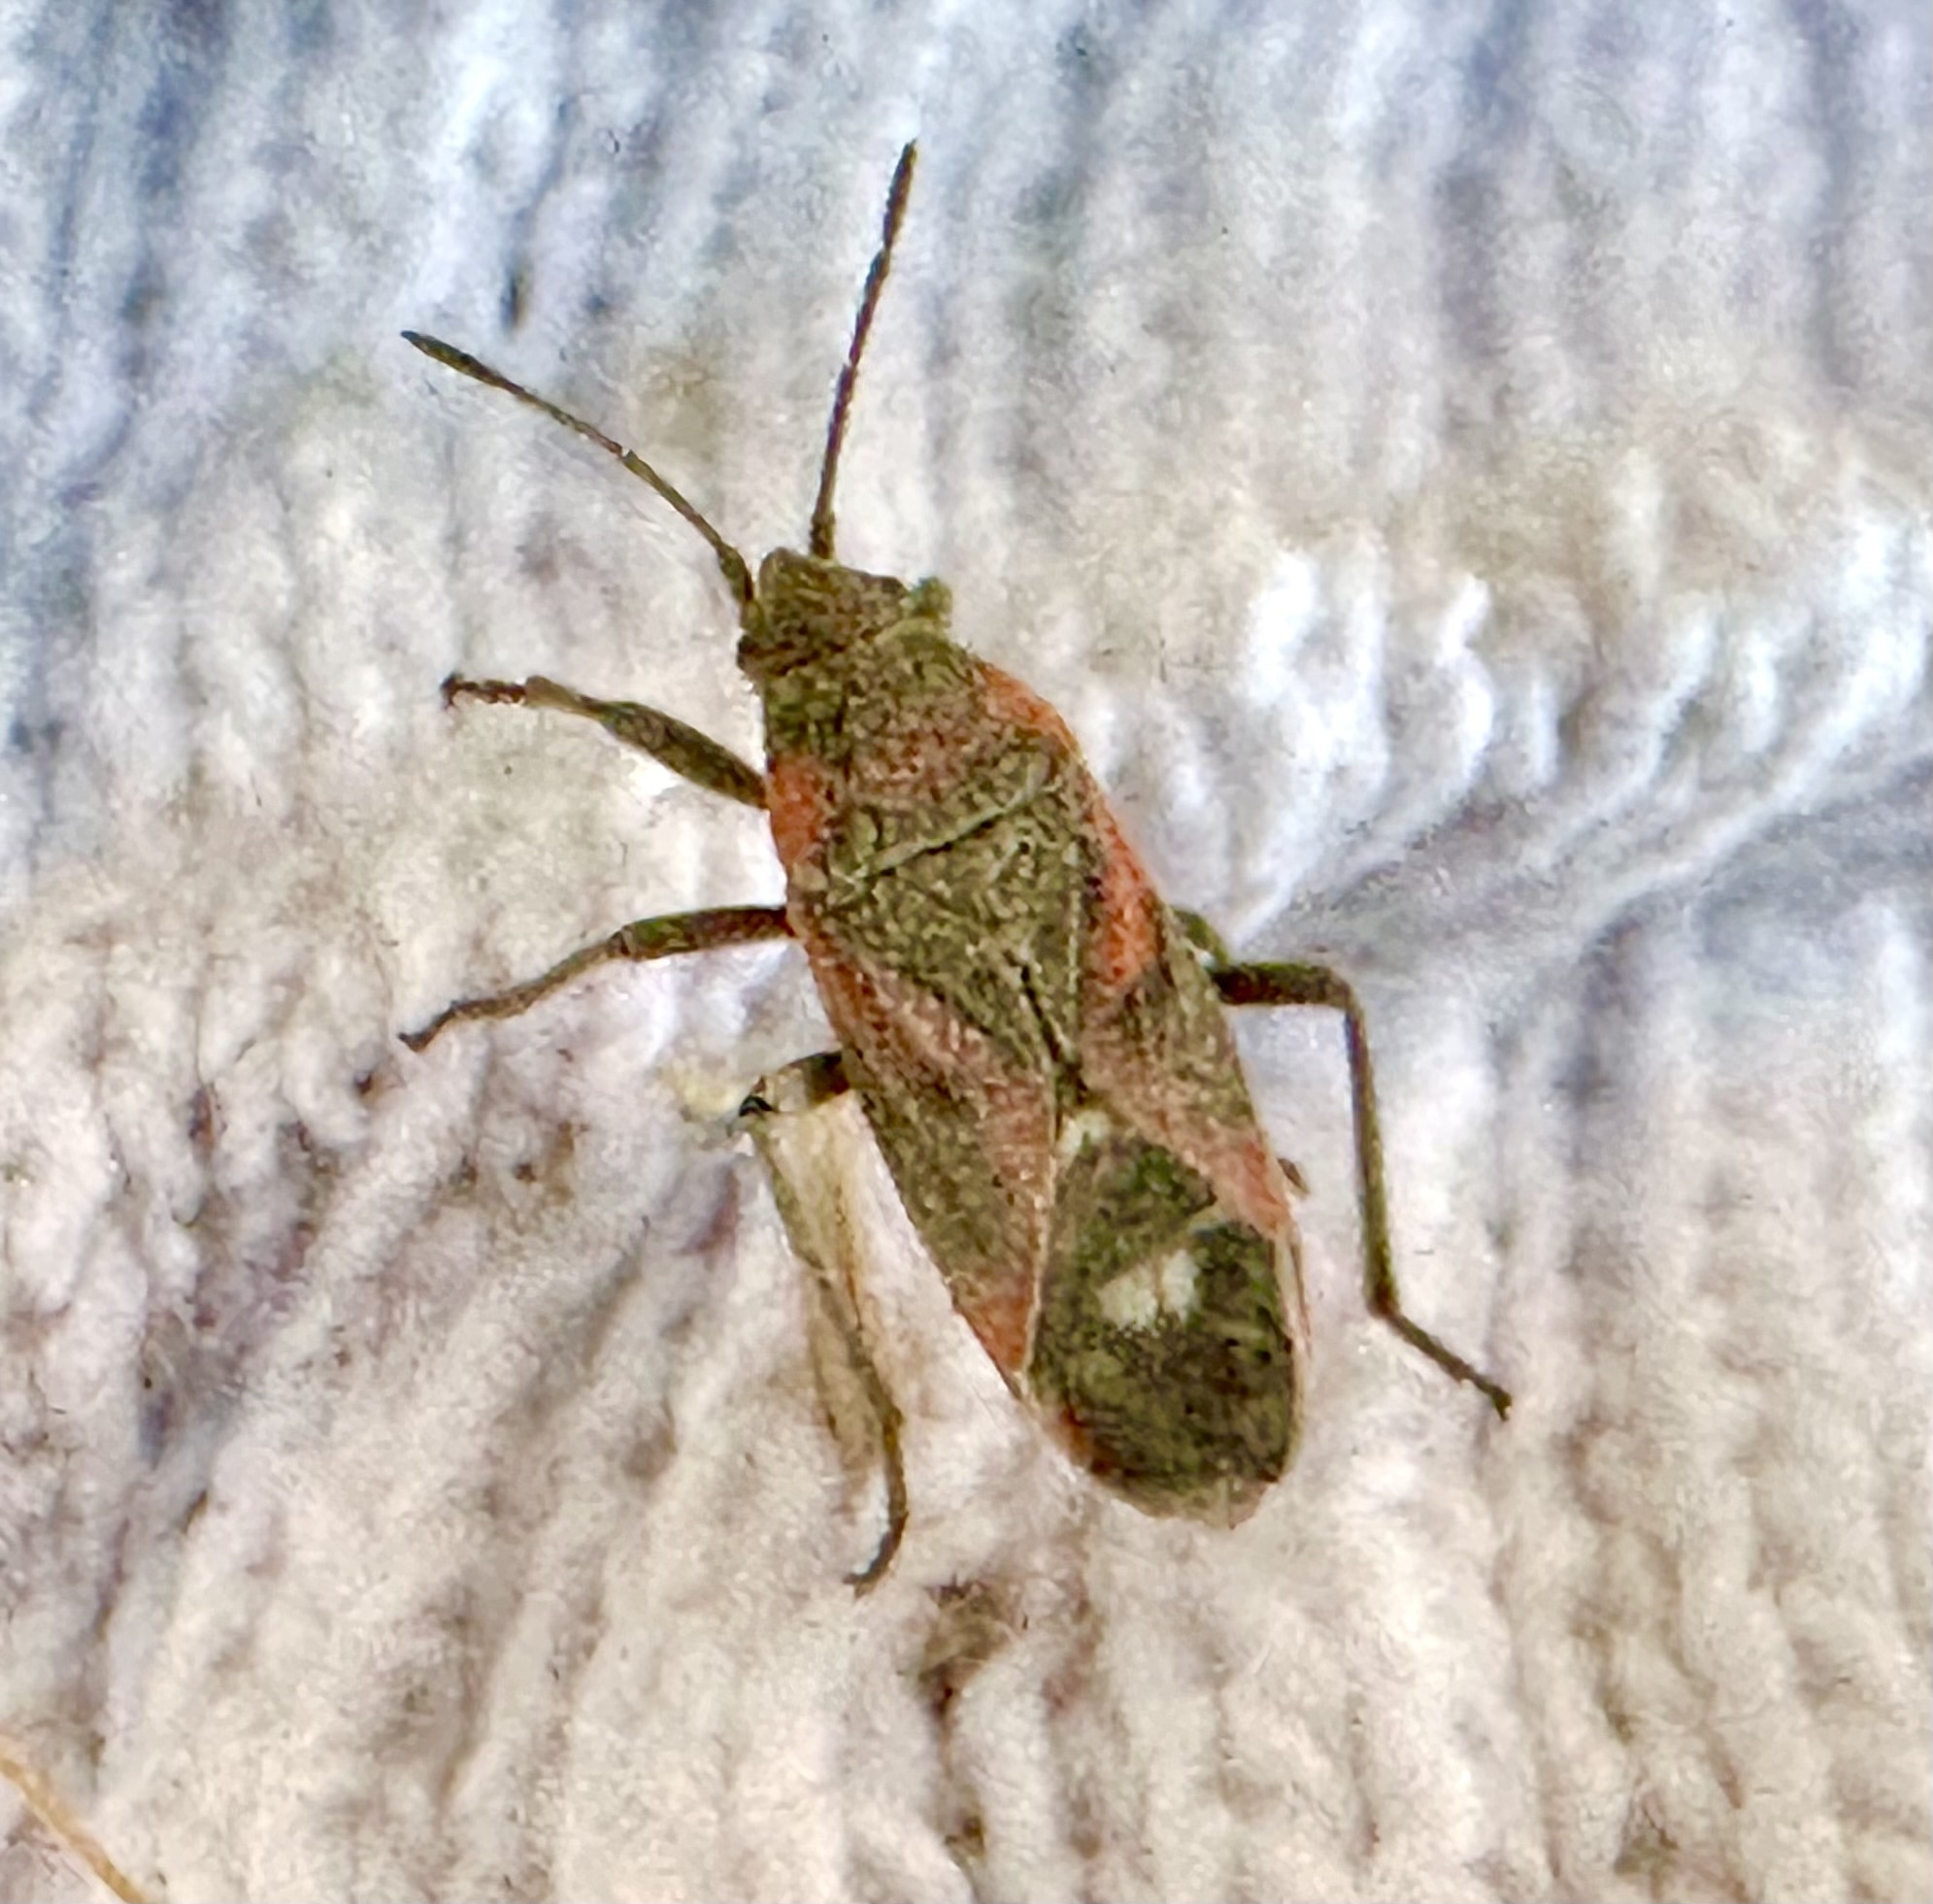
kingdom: Animalia
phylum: Arthropoda
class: Insecta
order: Hemiptera
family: Lygaeidae
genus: Lygaeus
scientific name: Lygaeus kalmii
